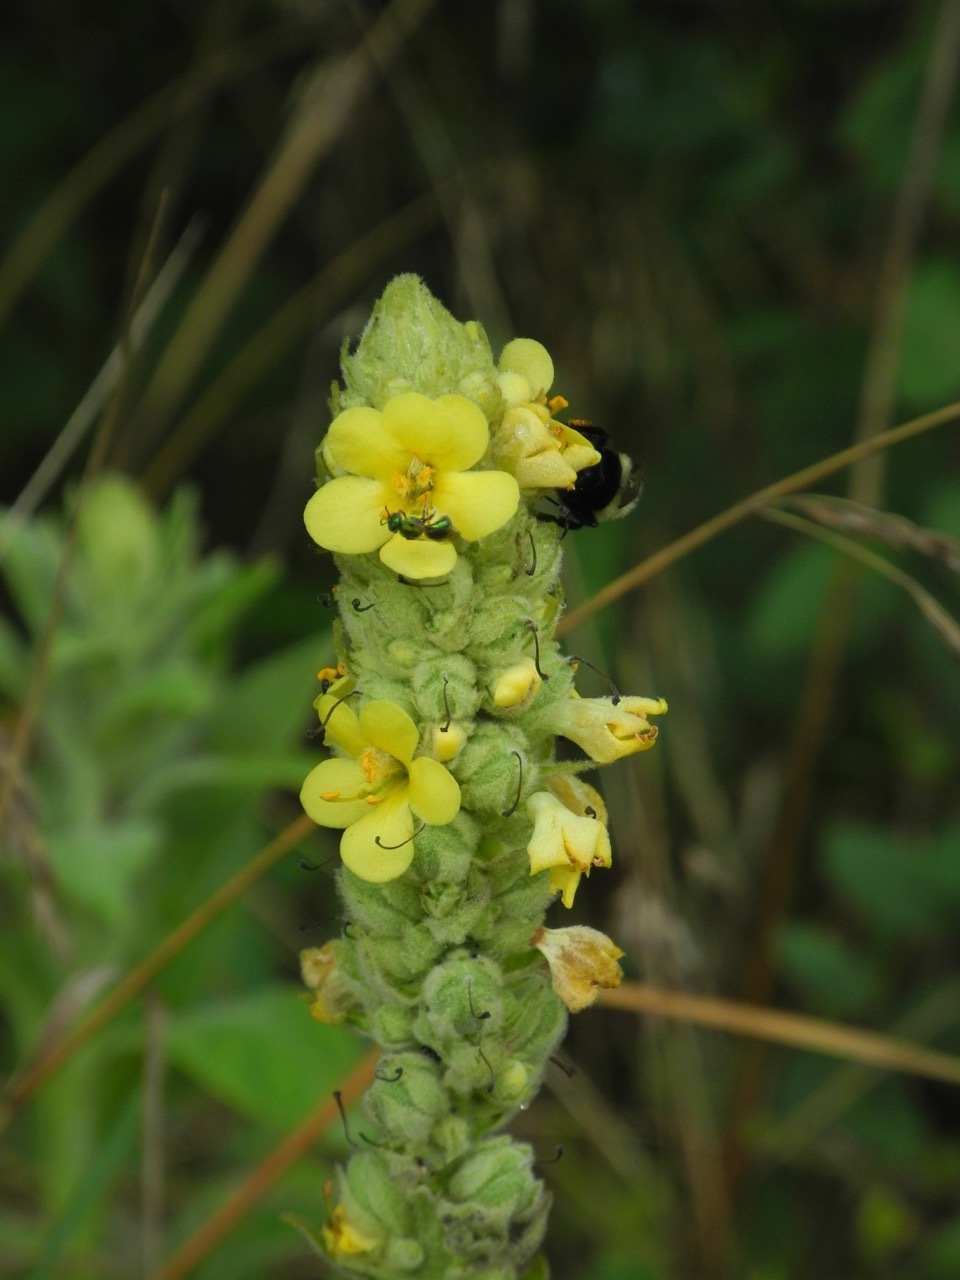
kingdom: Plantae
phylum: Tracheophyta
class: Magnoliopsida
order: Lamiales
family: Scrophulariaceae
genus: Verbascum
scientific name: Verbascum thapsus
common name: Common mullein
